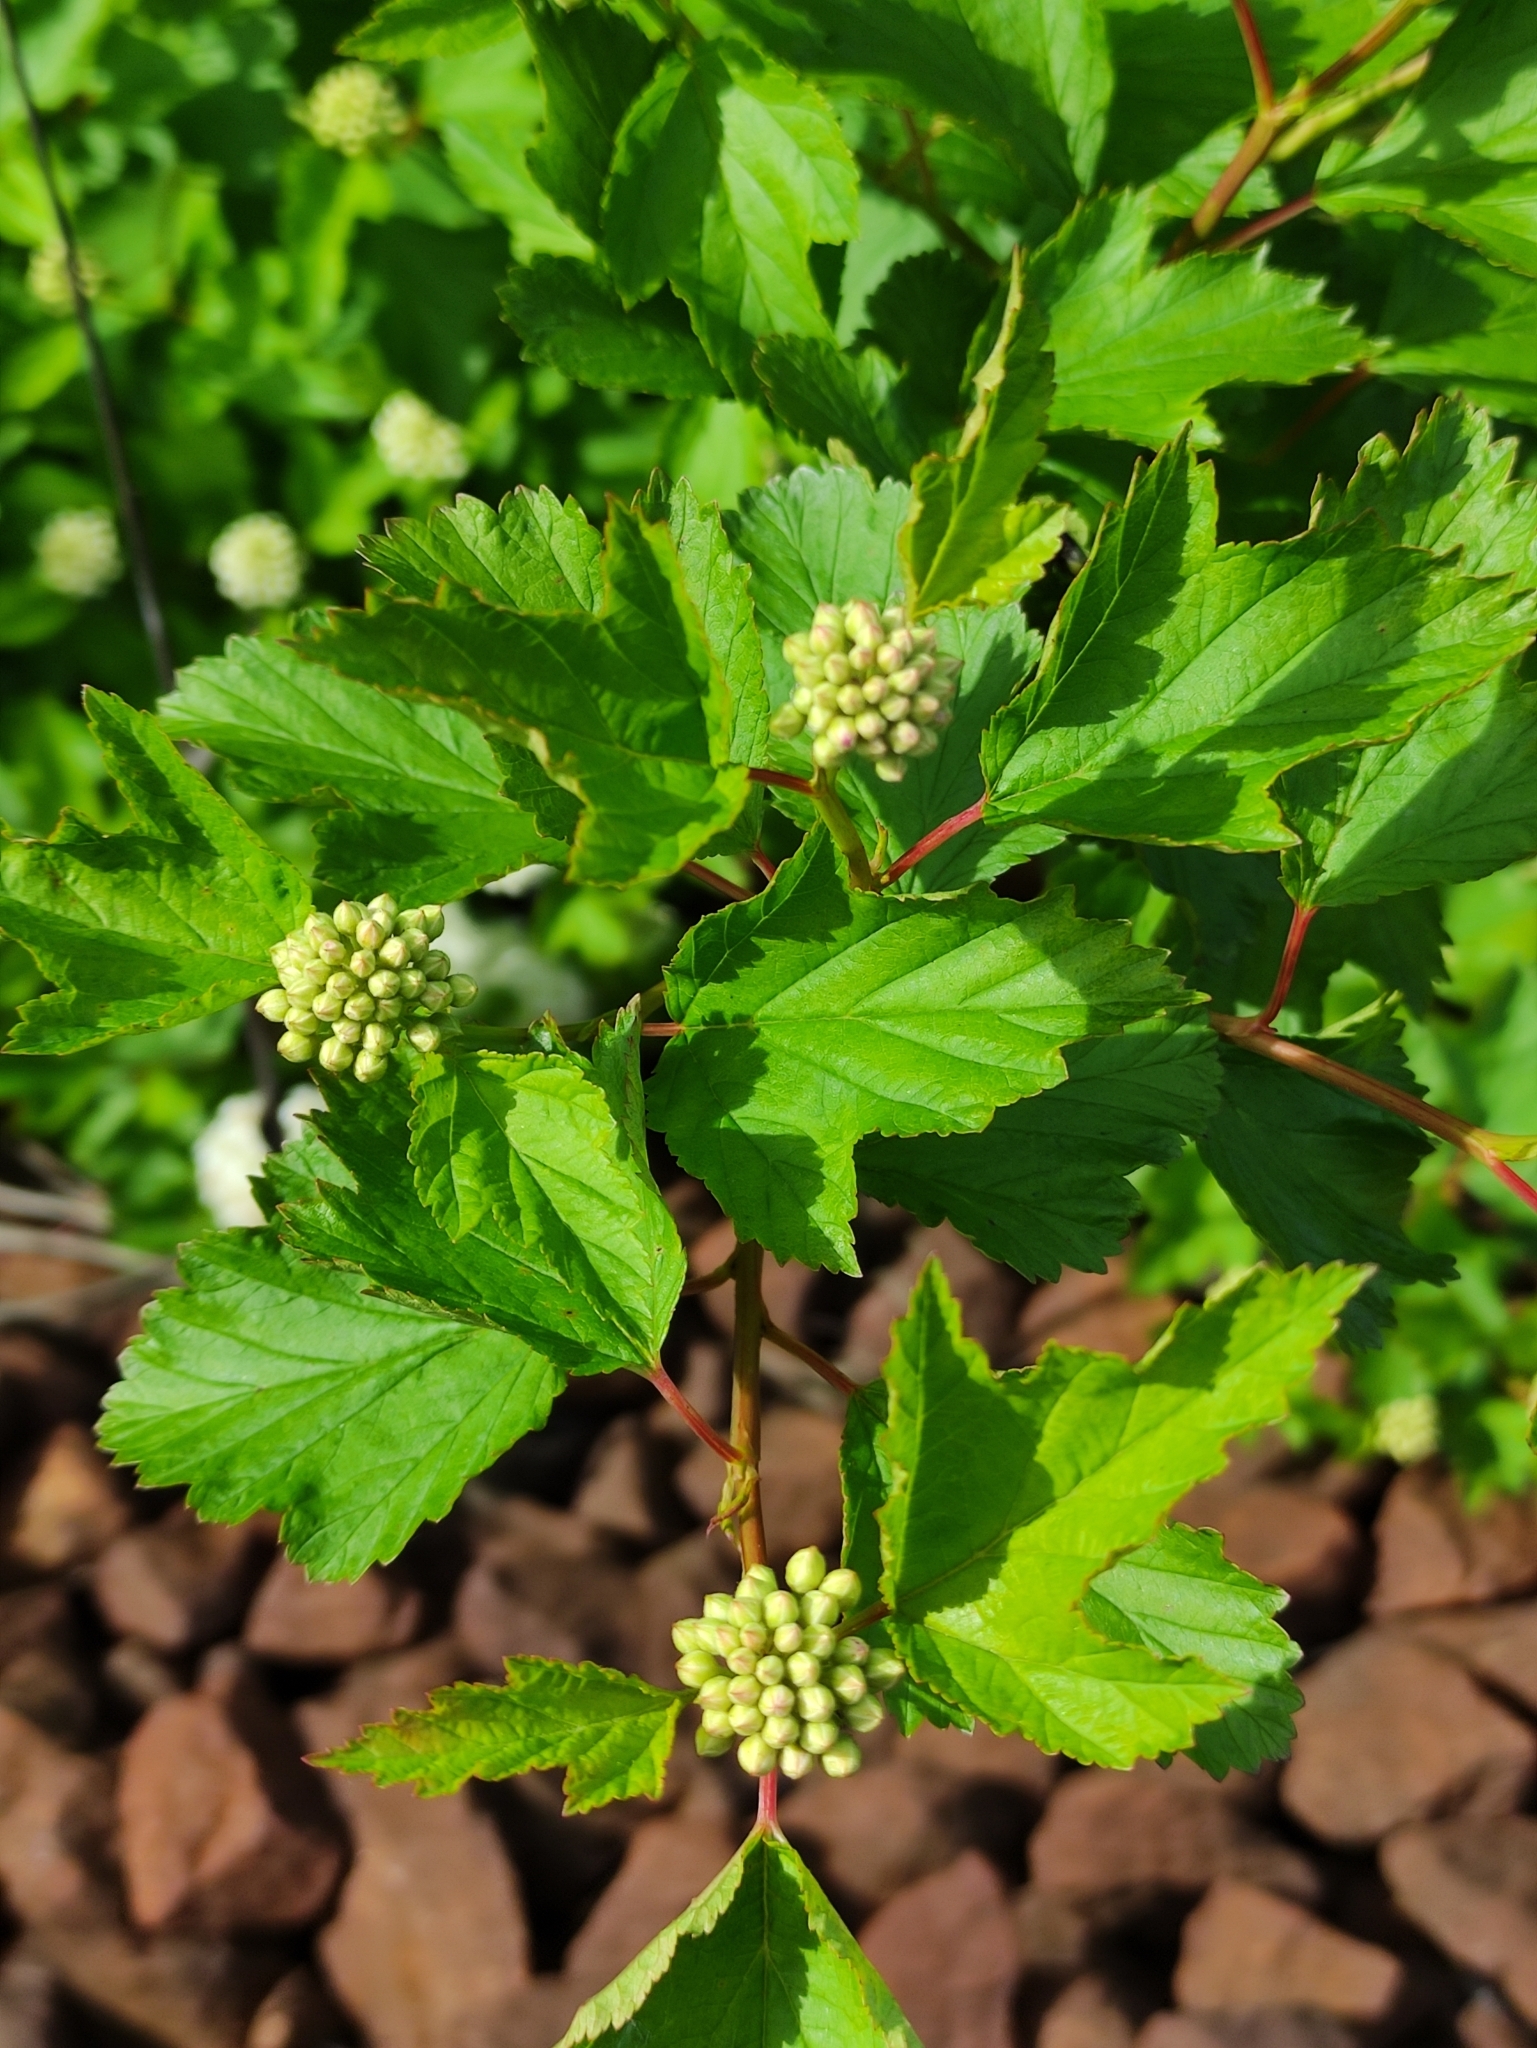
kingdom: Plantae
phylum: Tracheophyta
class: Magnoliopsida
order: Rosales
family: Rosaceae
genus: Physocarpus
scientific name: Physocarpus opulifolius
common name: Ninebark
